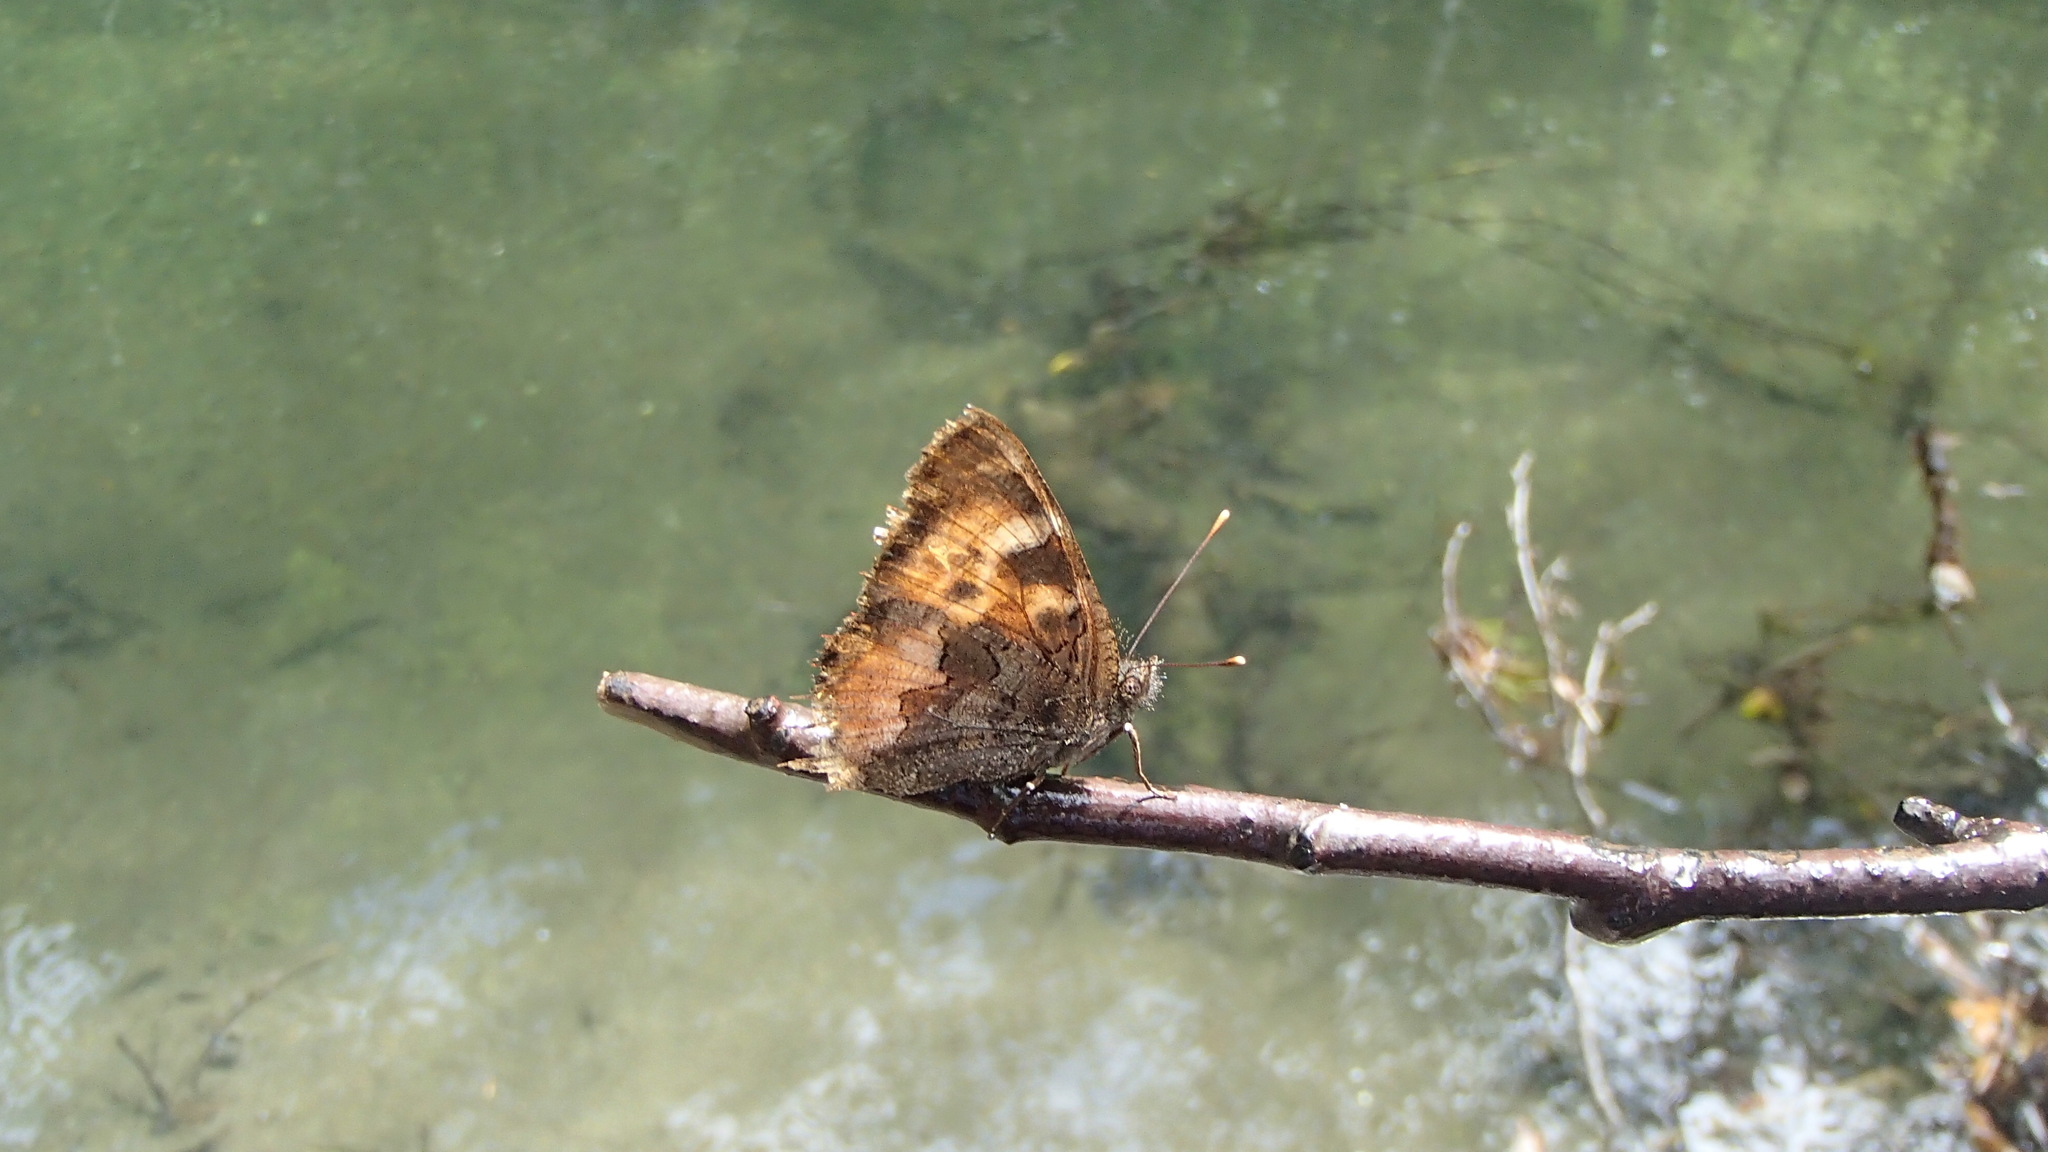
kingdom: Animalia
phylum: Arthropoda
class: Insecta
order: Lepidoptera
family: Nymphalidae
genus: Nymphalis
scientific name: Nymphalis californica
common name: California tortoiseshell
